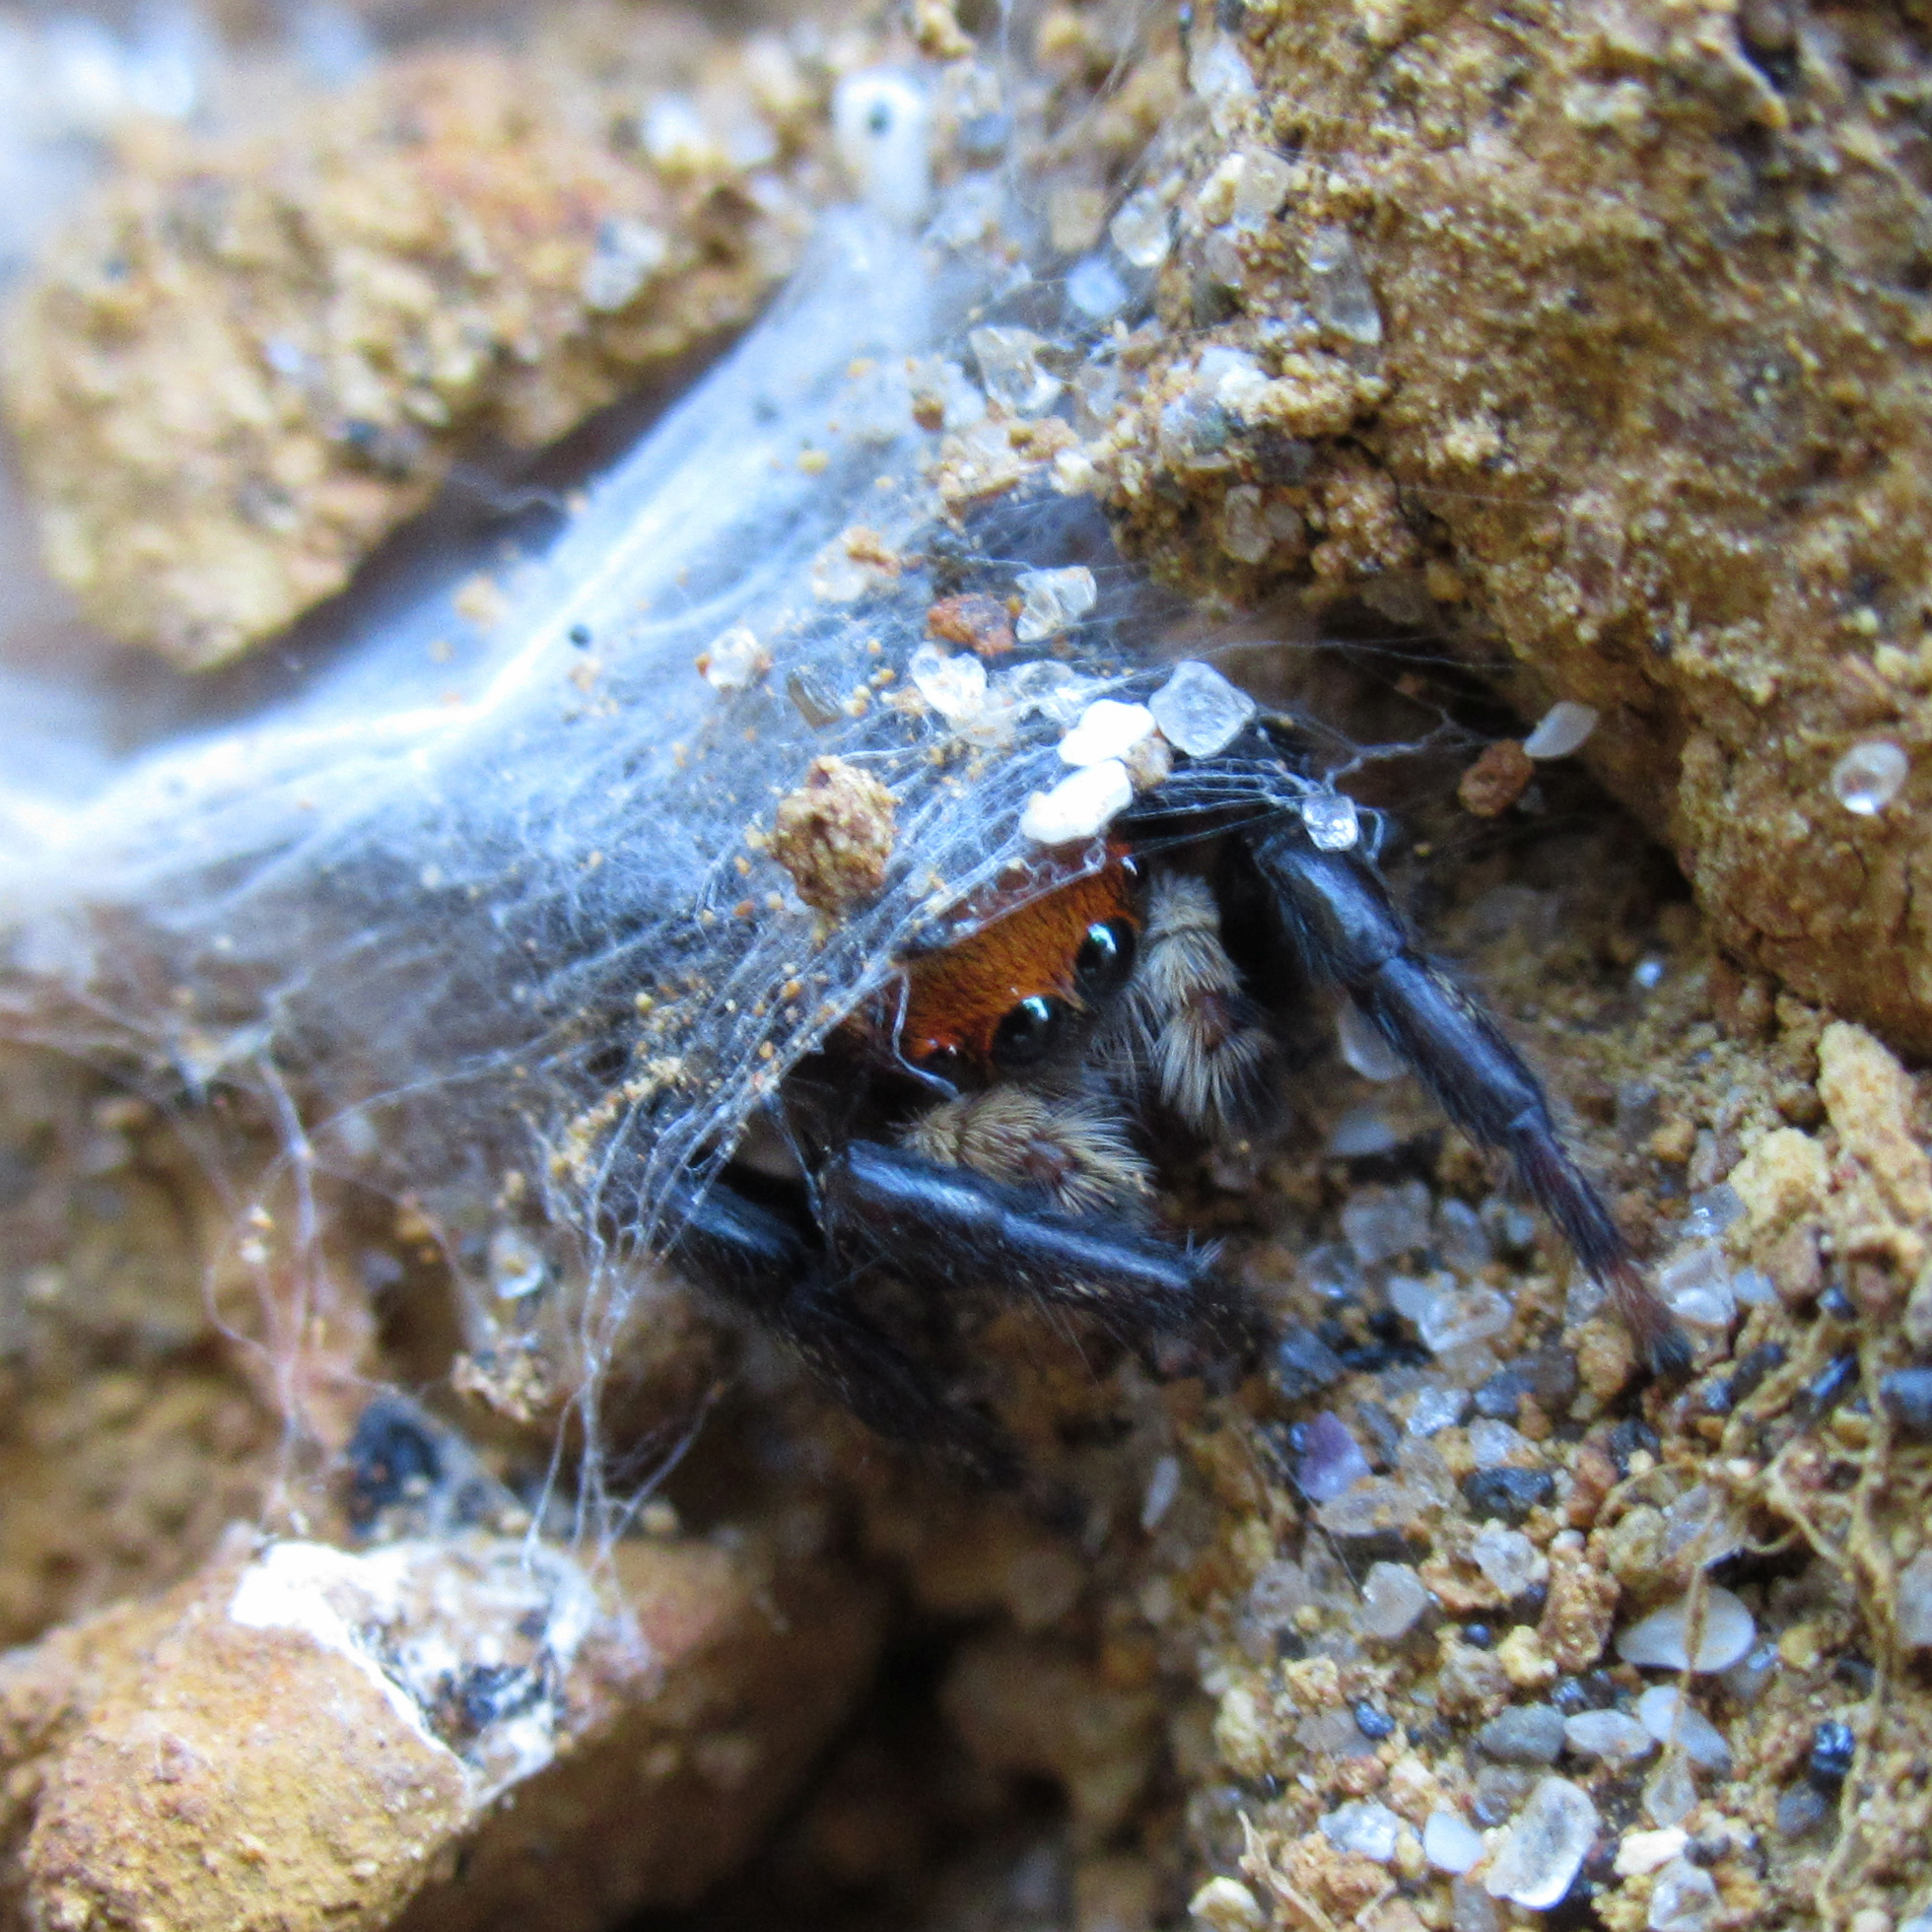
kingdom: Animalia
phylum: Arthropoda
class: Arachnida
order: Araneae
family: Salticidae
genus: Maratus
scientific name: Maratus griseus
